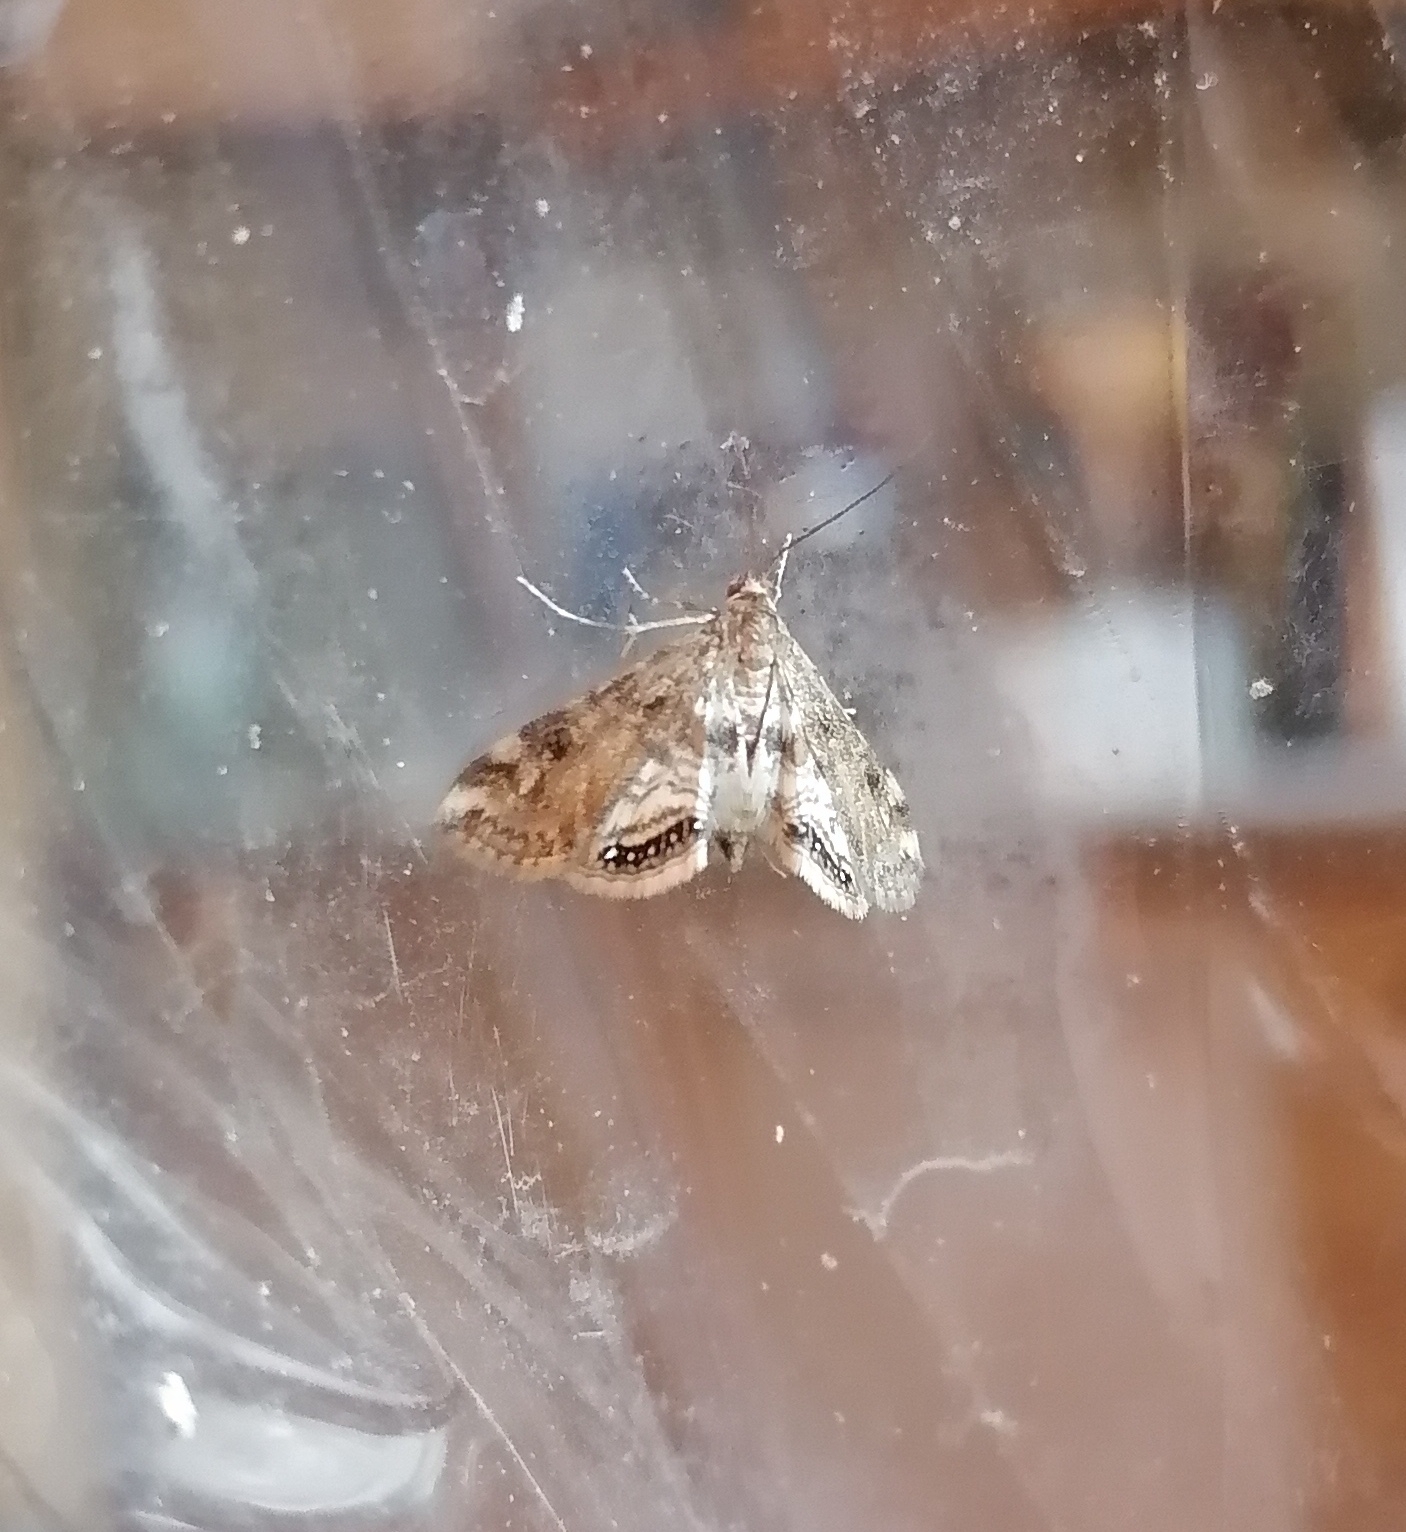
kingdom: Animalia
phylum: Arthropoda
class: Insecta
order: Lepidoptera
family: Crambidae
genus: Cataclysta
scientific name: Cataclysta lemnata
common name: Small china-mark
